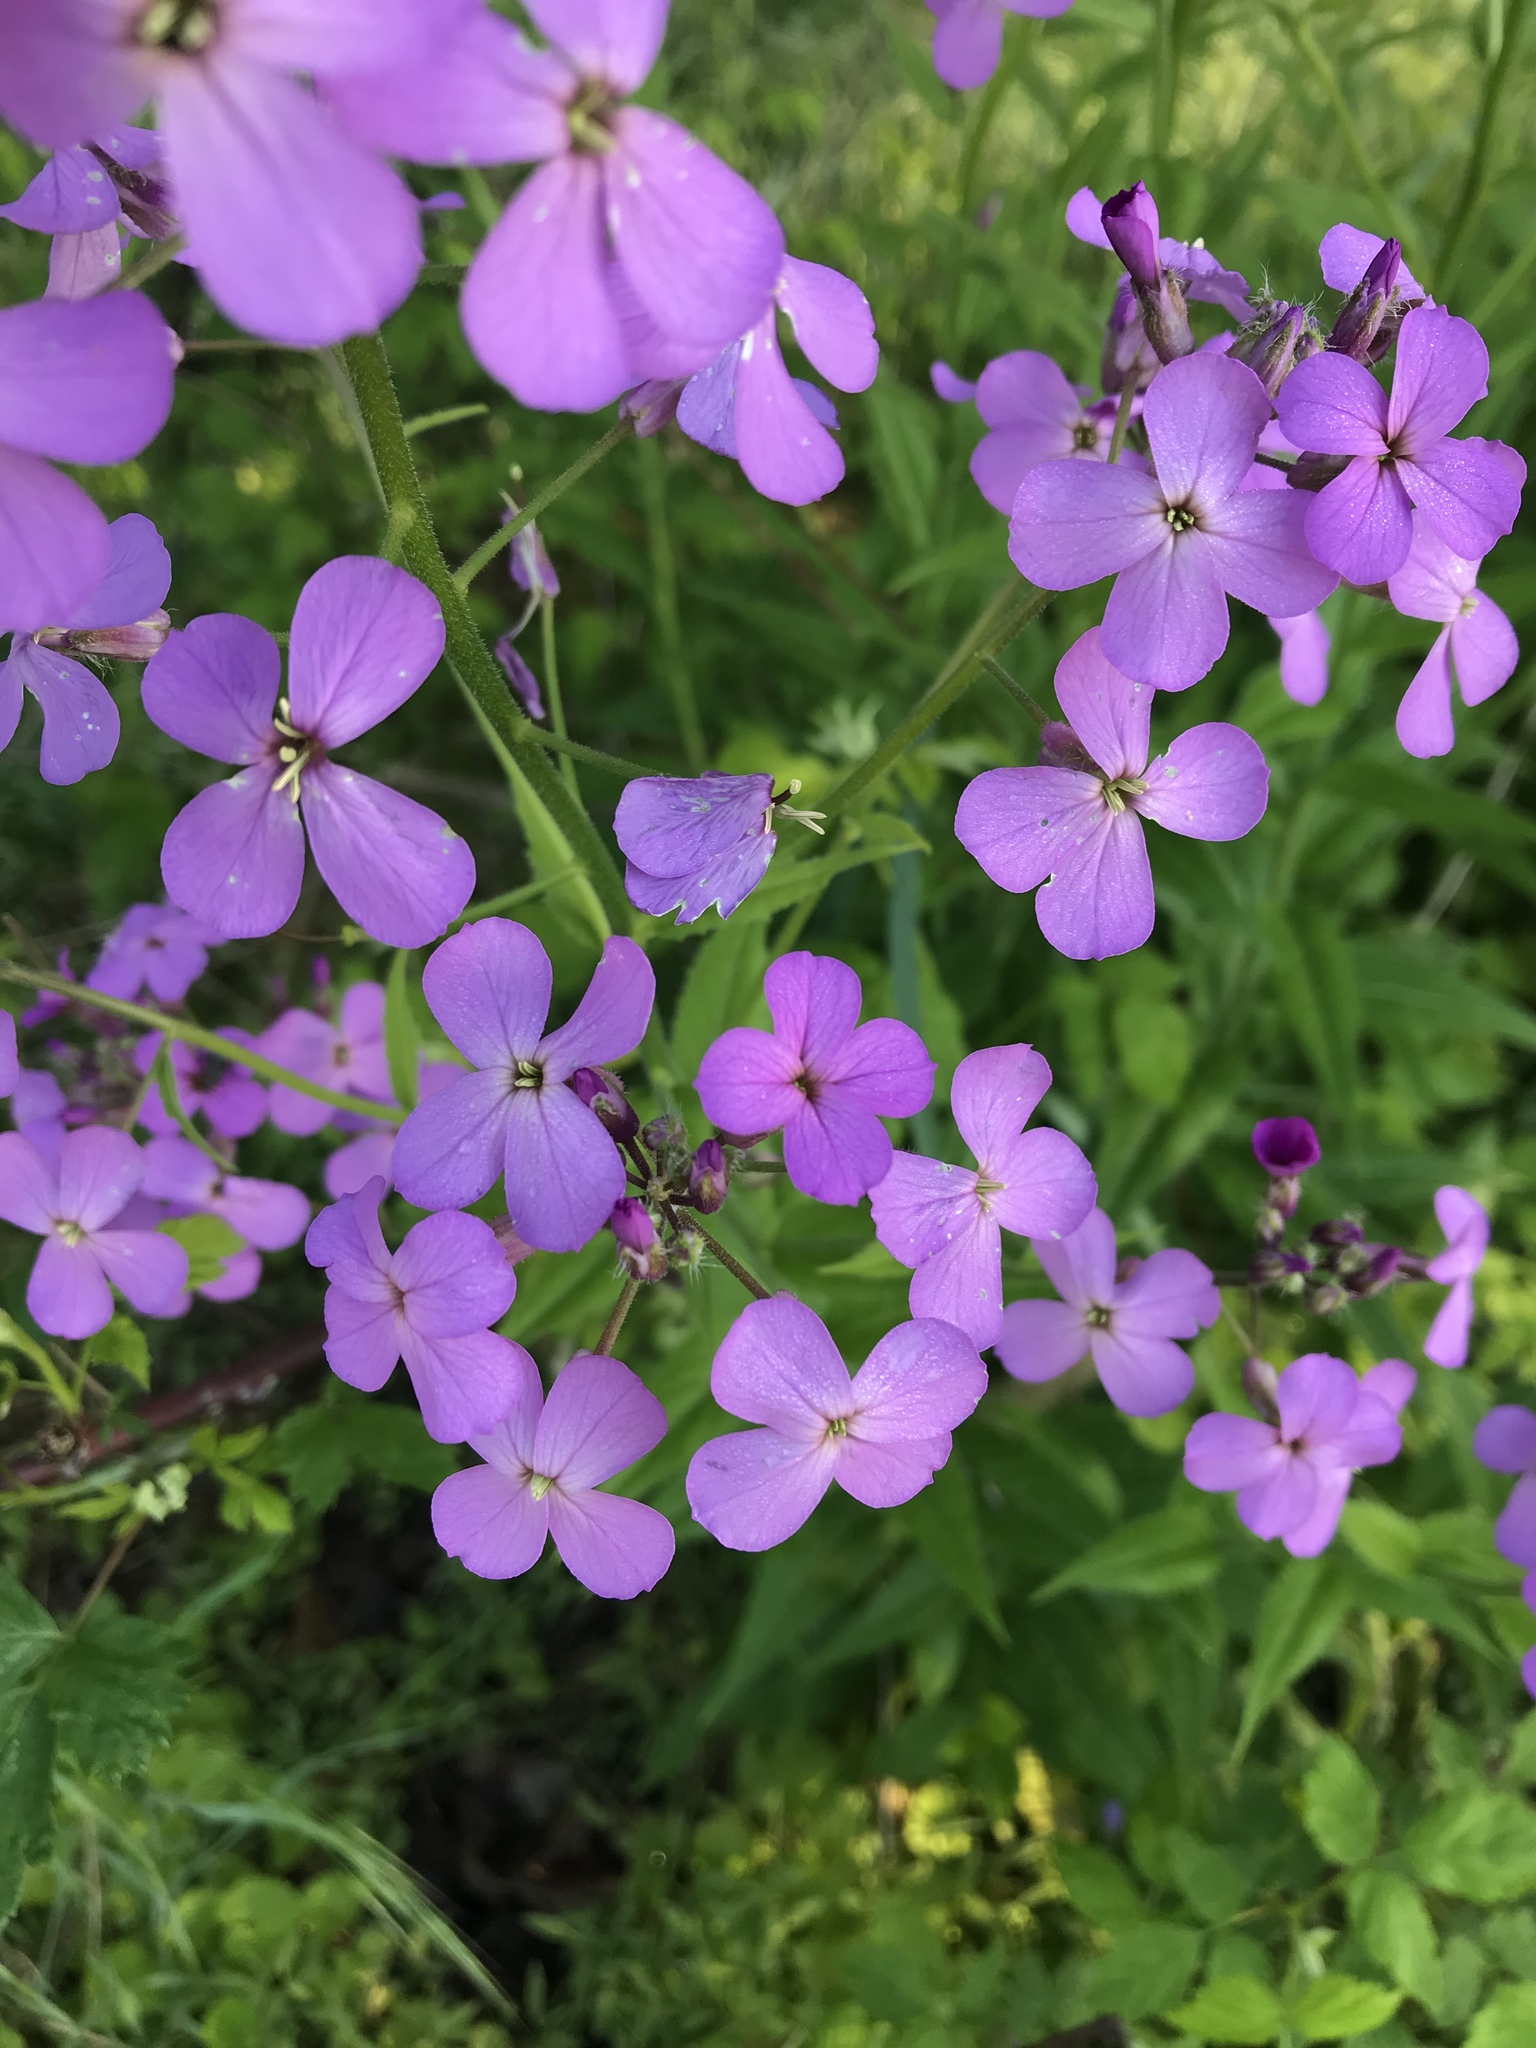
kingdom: Plantae
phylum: Tracheophyta
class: Magnoliopsida
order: Brassicales
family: Brassicaceae
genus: Hesperis
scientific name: Hesperis matronalis
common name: Dame's-violet
